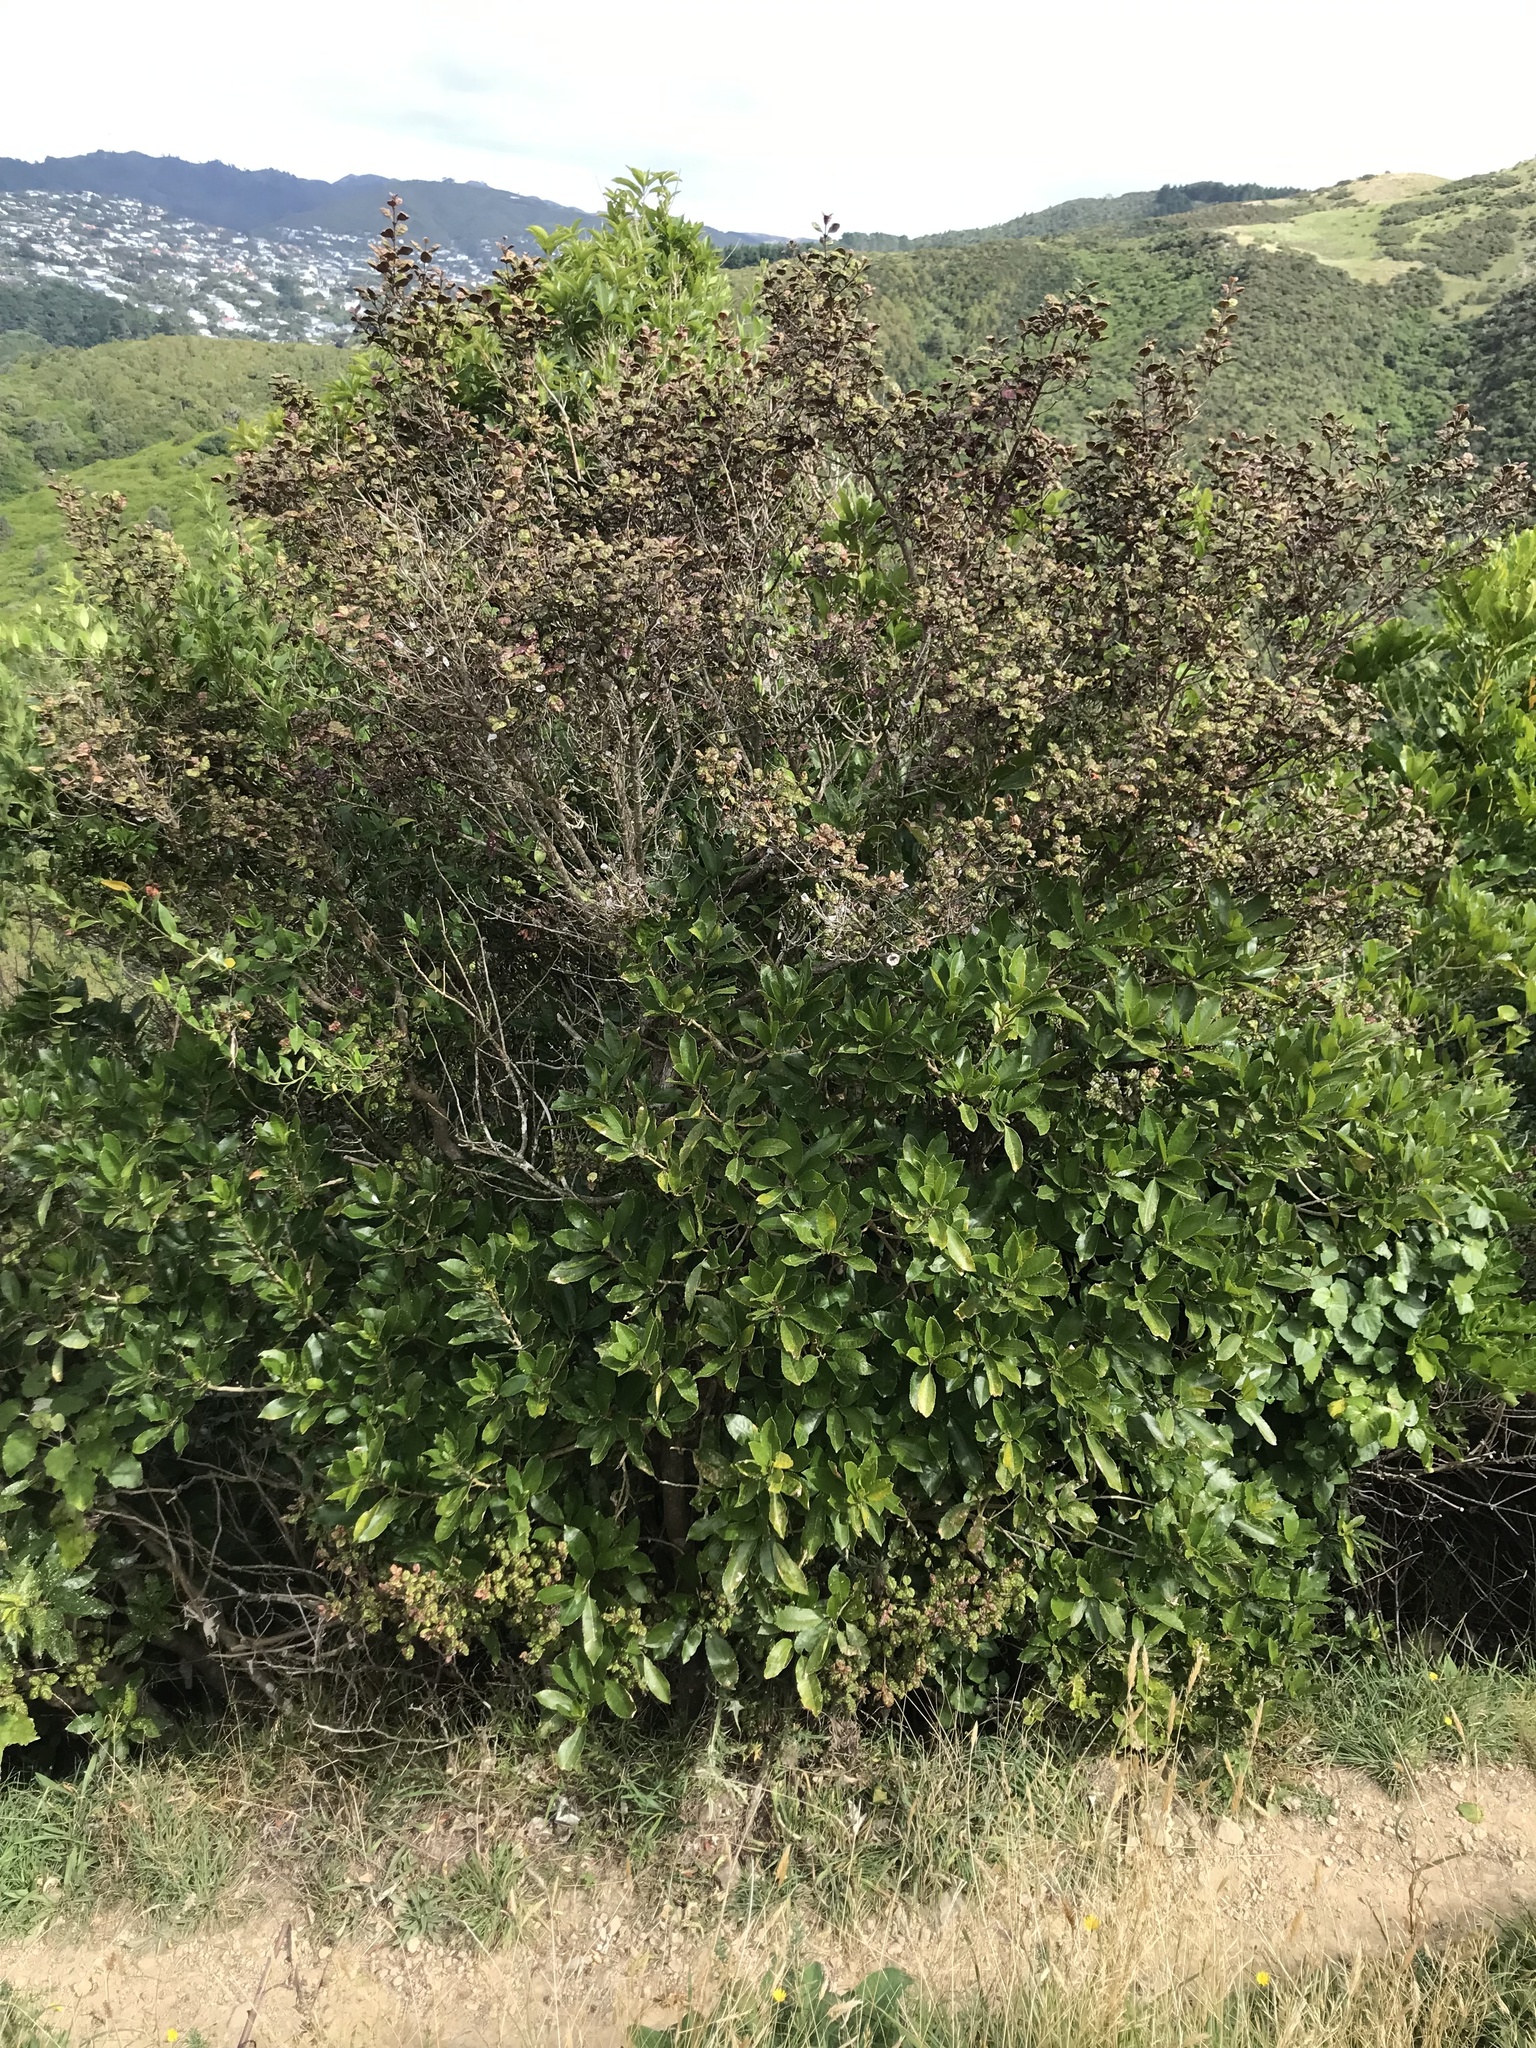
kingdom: Fungi
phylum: Basidiomycota
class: Pucciniomycetes
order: Pucciniales
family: Sphaerophragmiaceae
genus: Austropuccinia
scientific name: Austropuccinia psidii
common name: Myrtle rust
